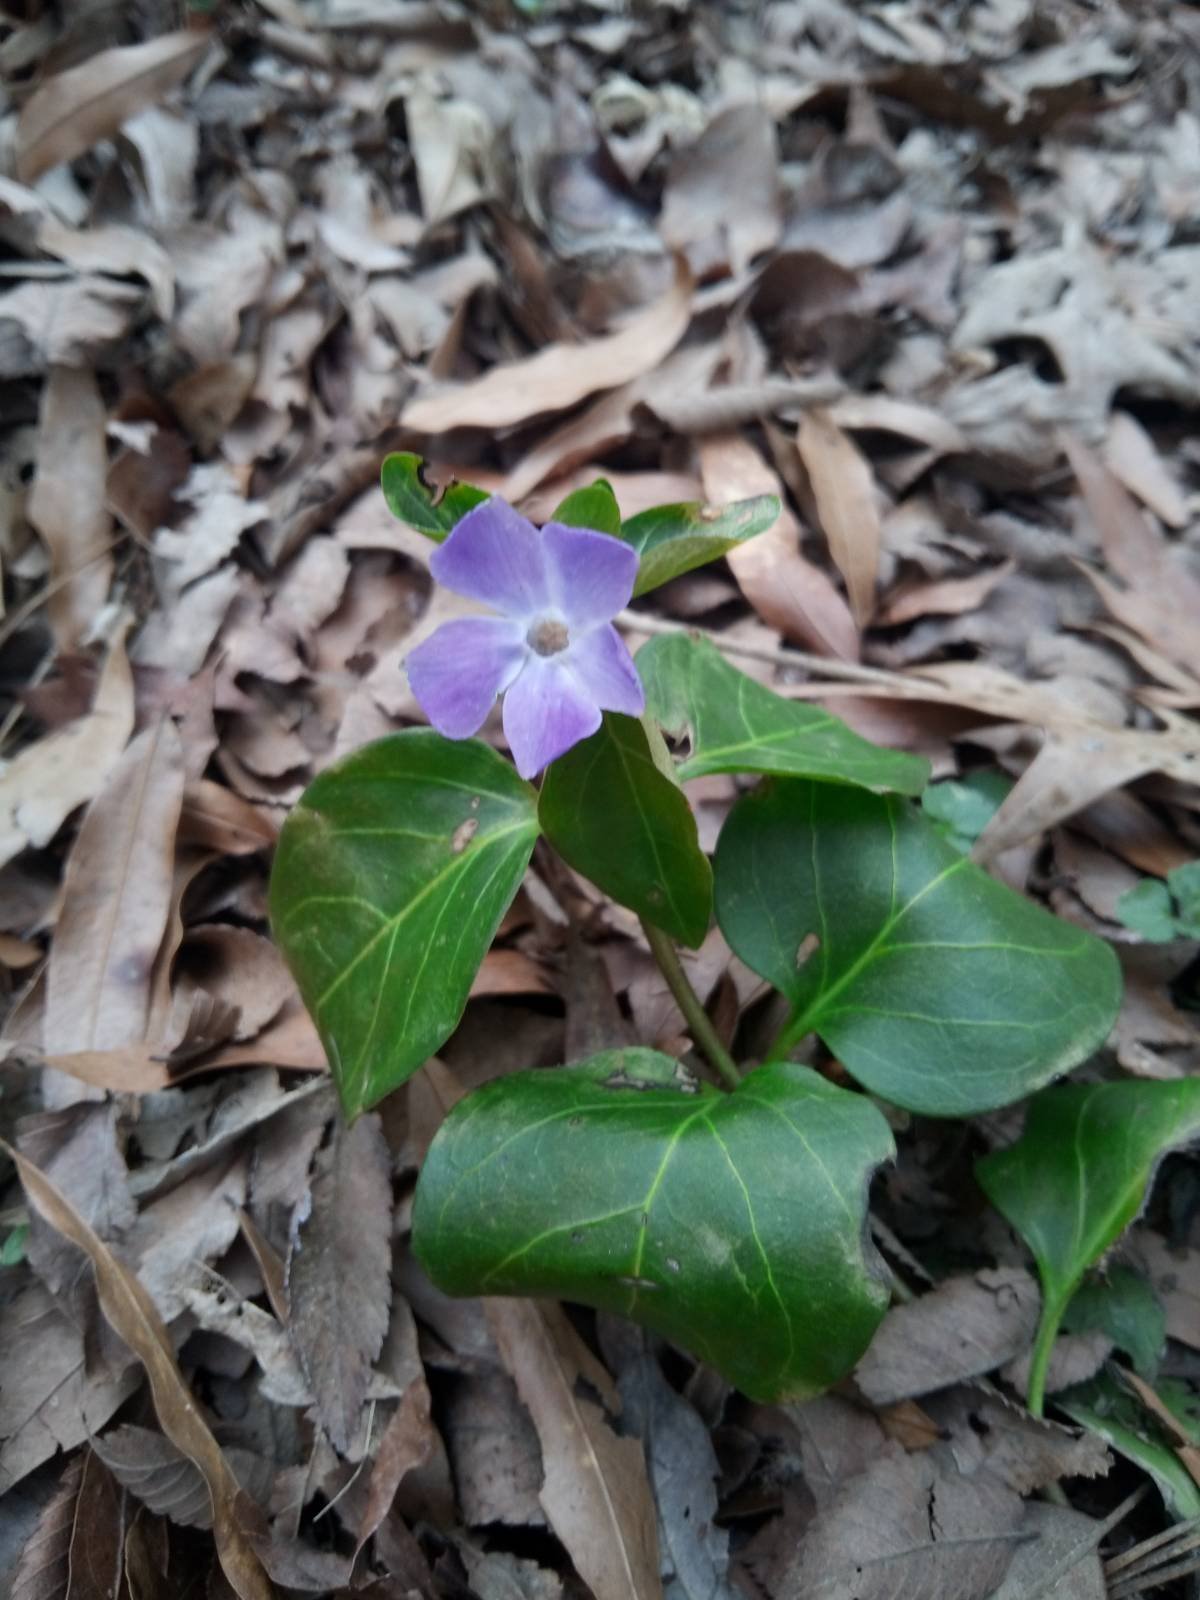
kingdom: Plantae
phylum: Tracheophyta
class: Magnoliopsida
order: Gentianales
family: Apocynaceae
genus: Vinca
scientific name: Vinca major
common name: Greater periwinkle
